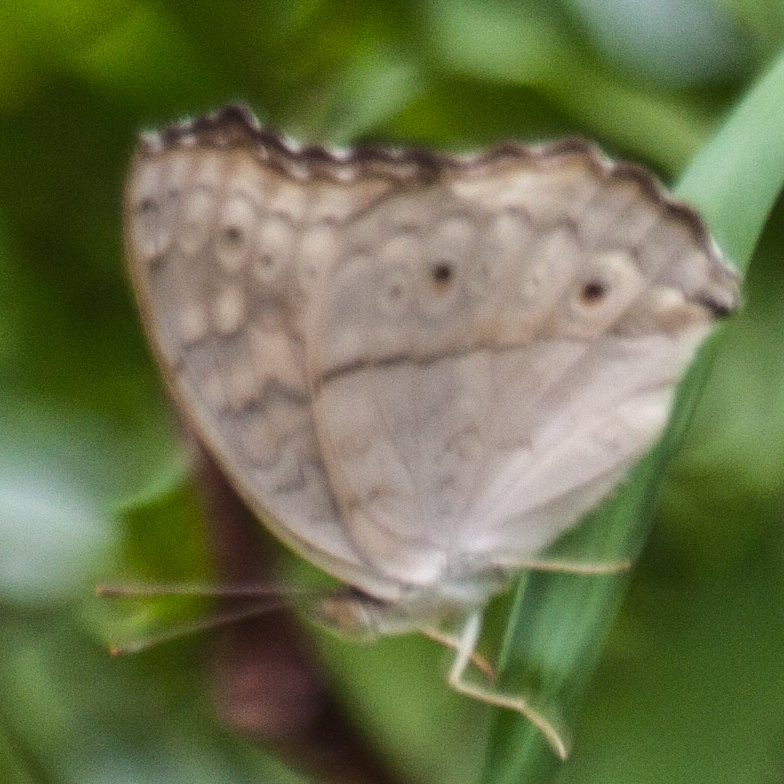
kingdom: Animalia
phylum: Arthropoda
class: Insecta
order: Lepidoptera
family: Nymphalidae
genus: Junonia
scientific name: Junonia atlites
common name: Grey pansy
